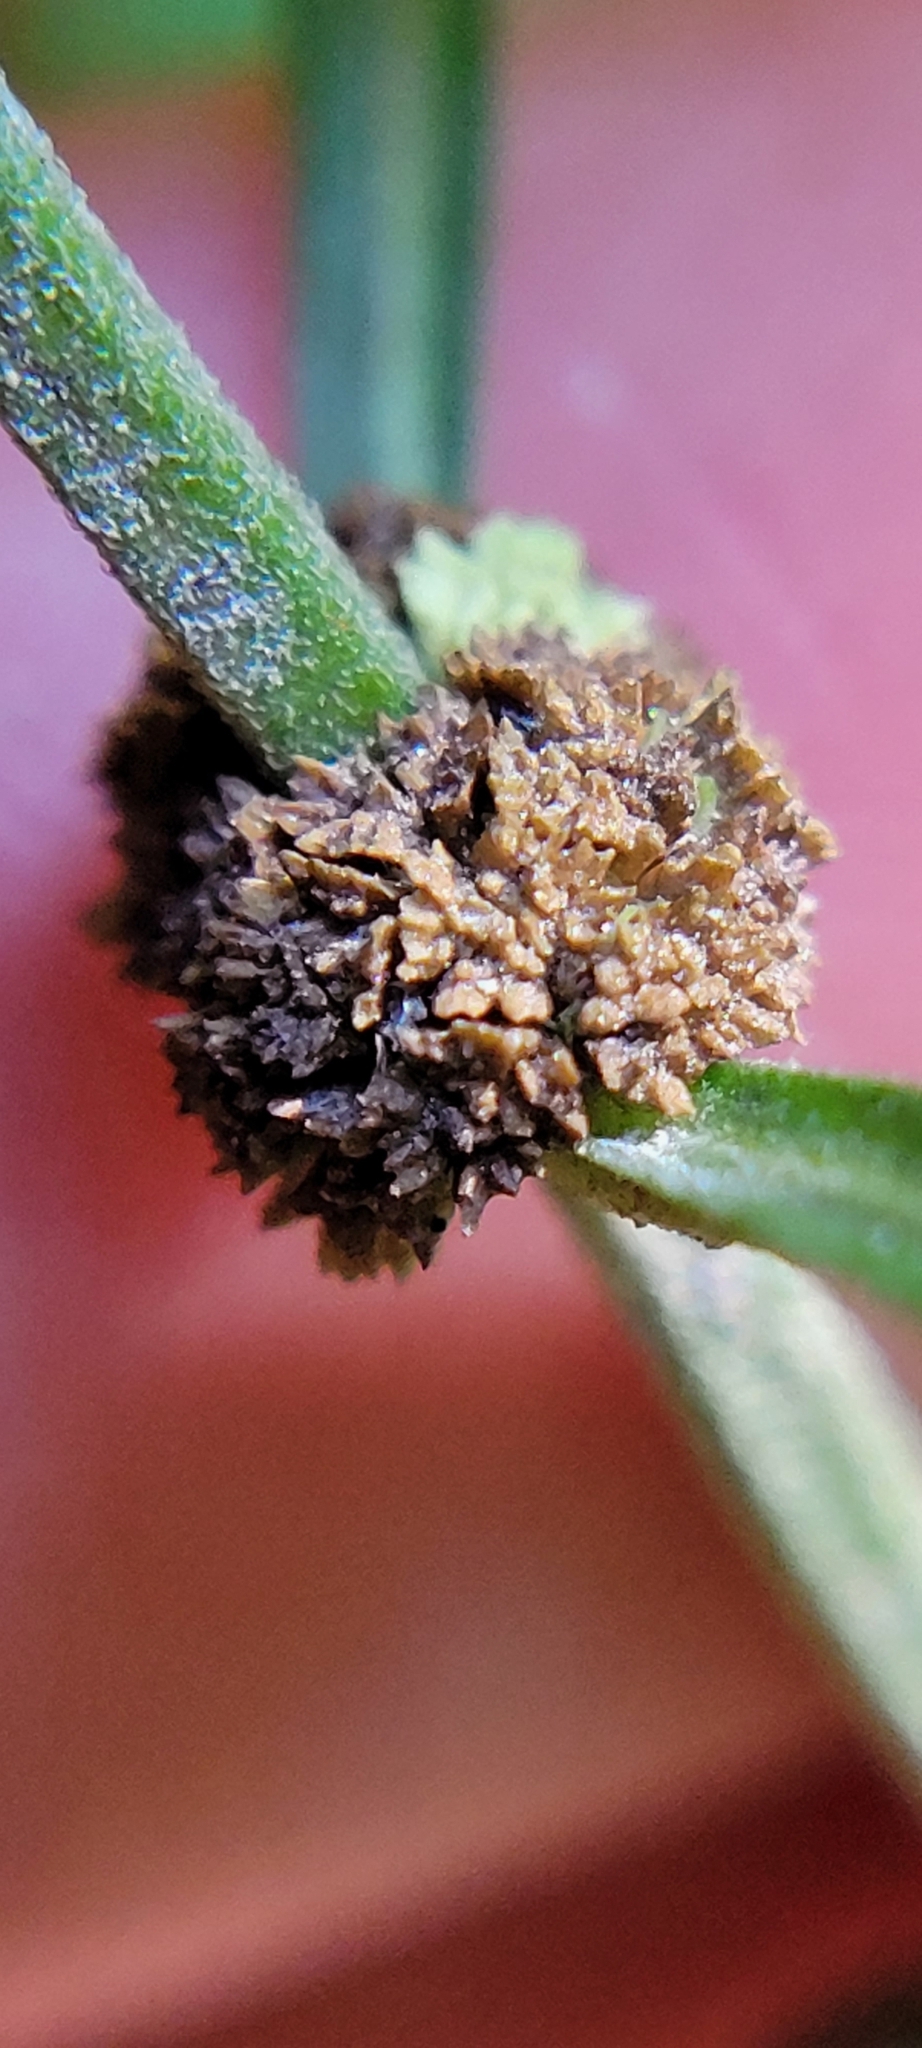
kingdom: Plantae
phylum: Tracheophyta
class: Magnoliopsida
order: Lamiales
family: Lamiaceae
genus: Lycopus
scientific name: Lycopus virginicus
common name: Bugleweed
